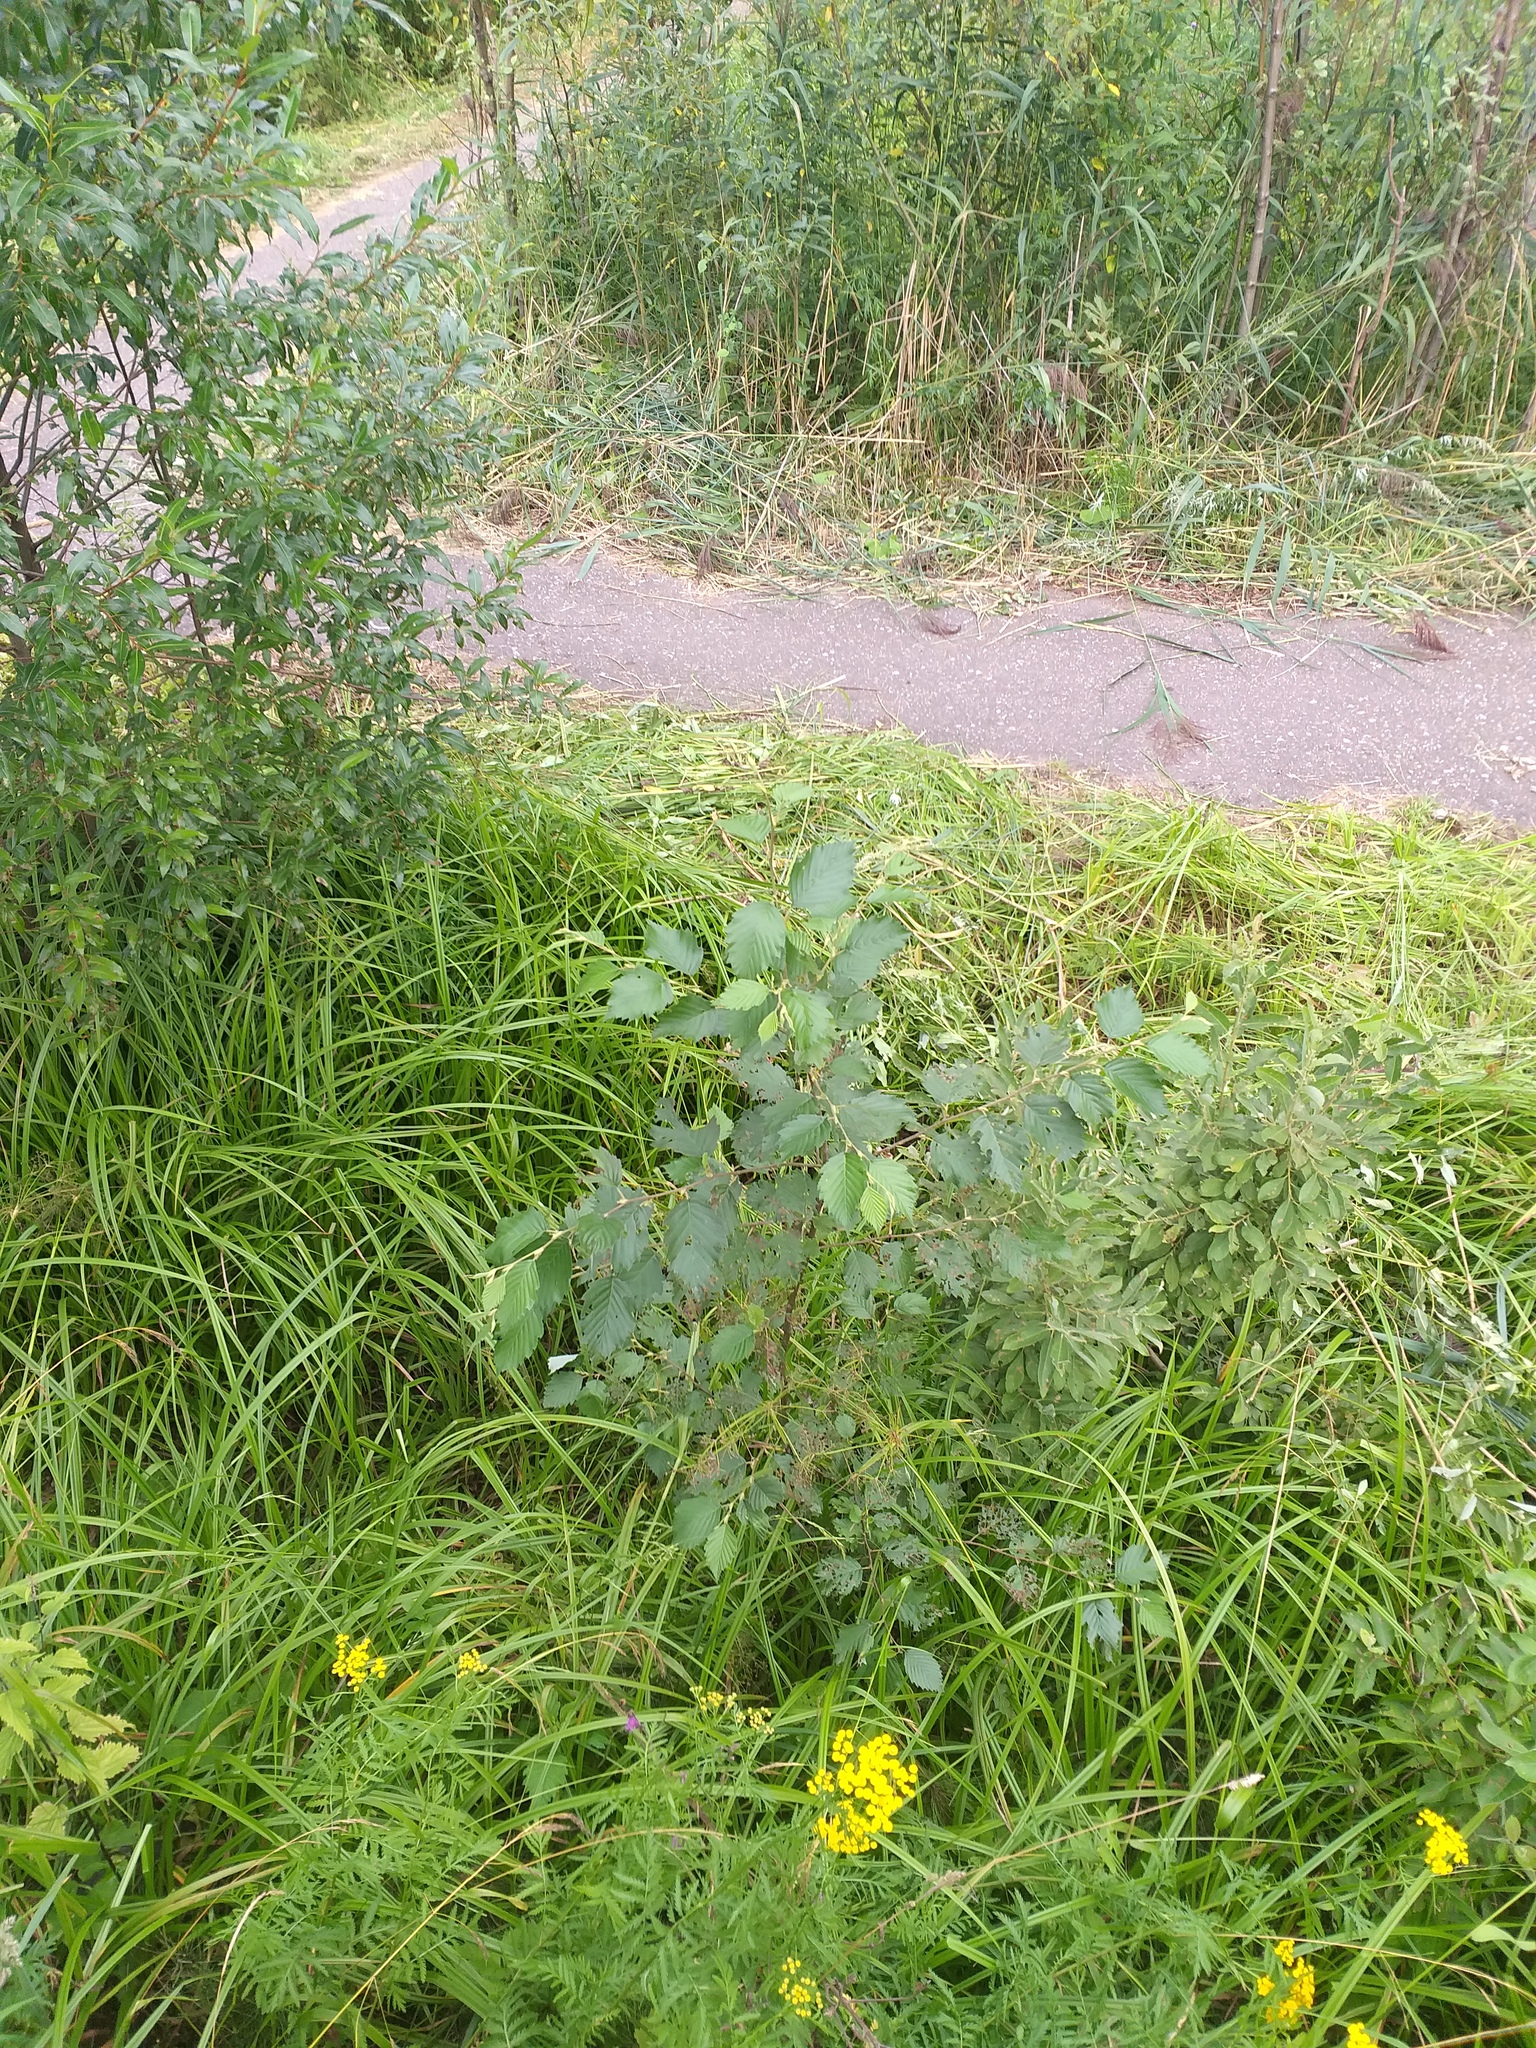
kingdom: Plantae
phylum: Tracheophyta
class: Magnoliopsida
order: Fagales
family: Betulaceae
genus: Alnus
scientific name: Alnus incana
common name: Grey alder
